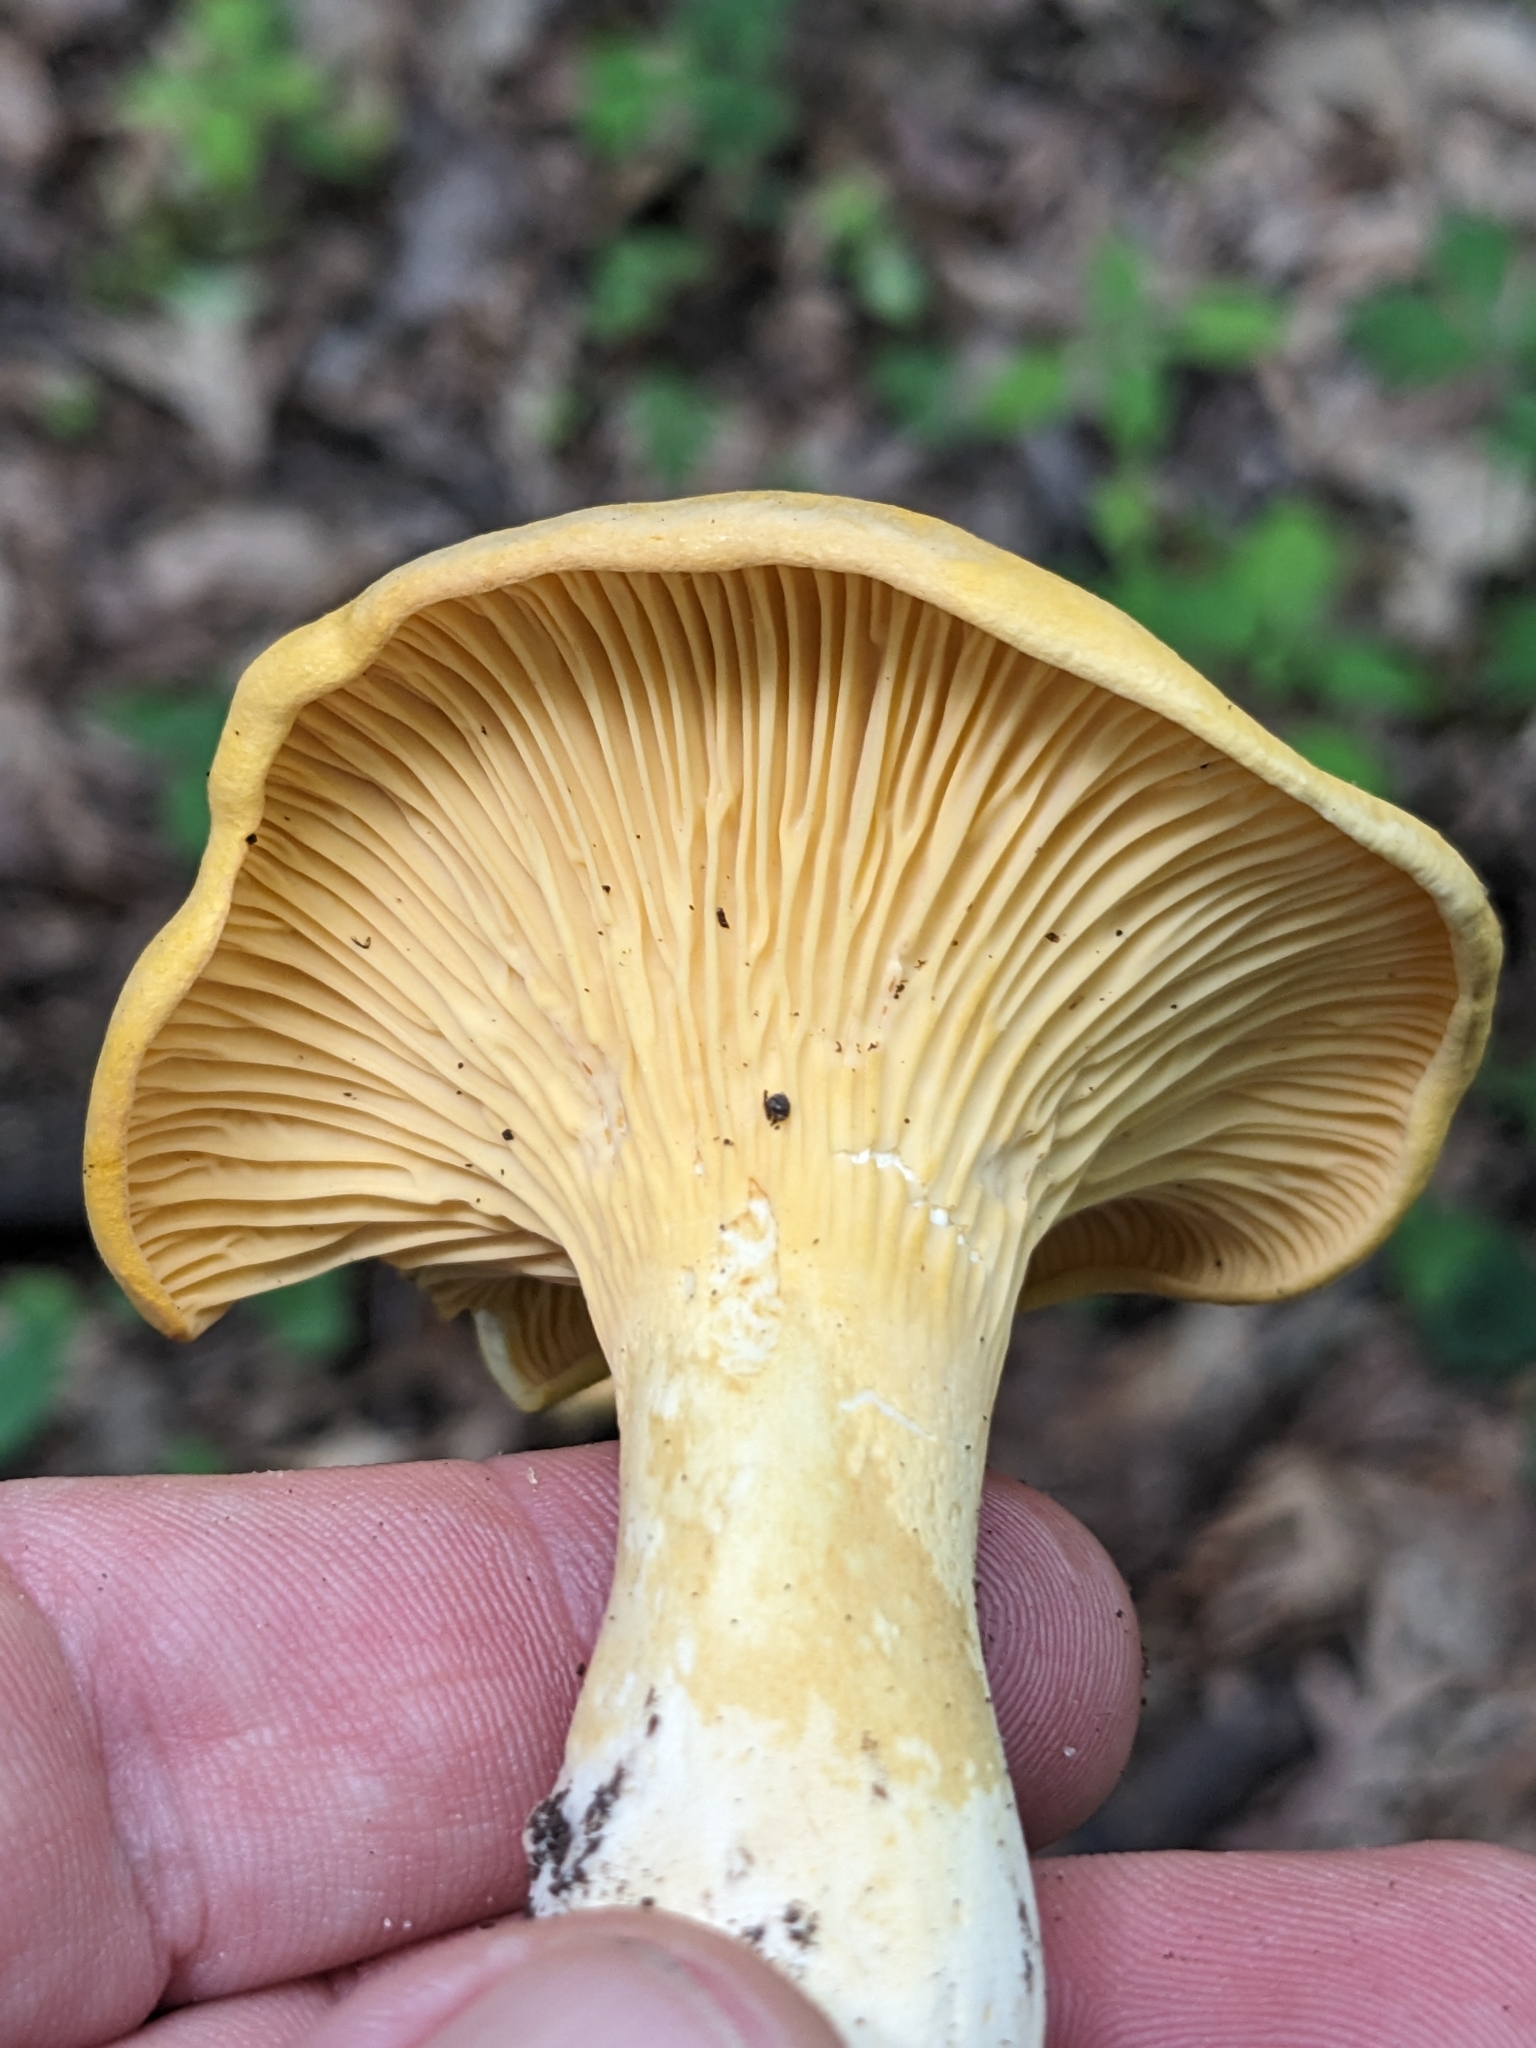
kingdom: Fungi
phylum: Basidiomycota
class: Agaricomycetes
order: Cantharellales
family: Hydnaceae
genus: Cantharellus
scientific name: Cantharellus phasmatis
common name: Ghost chanterelle
